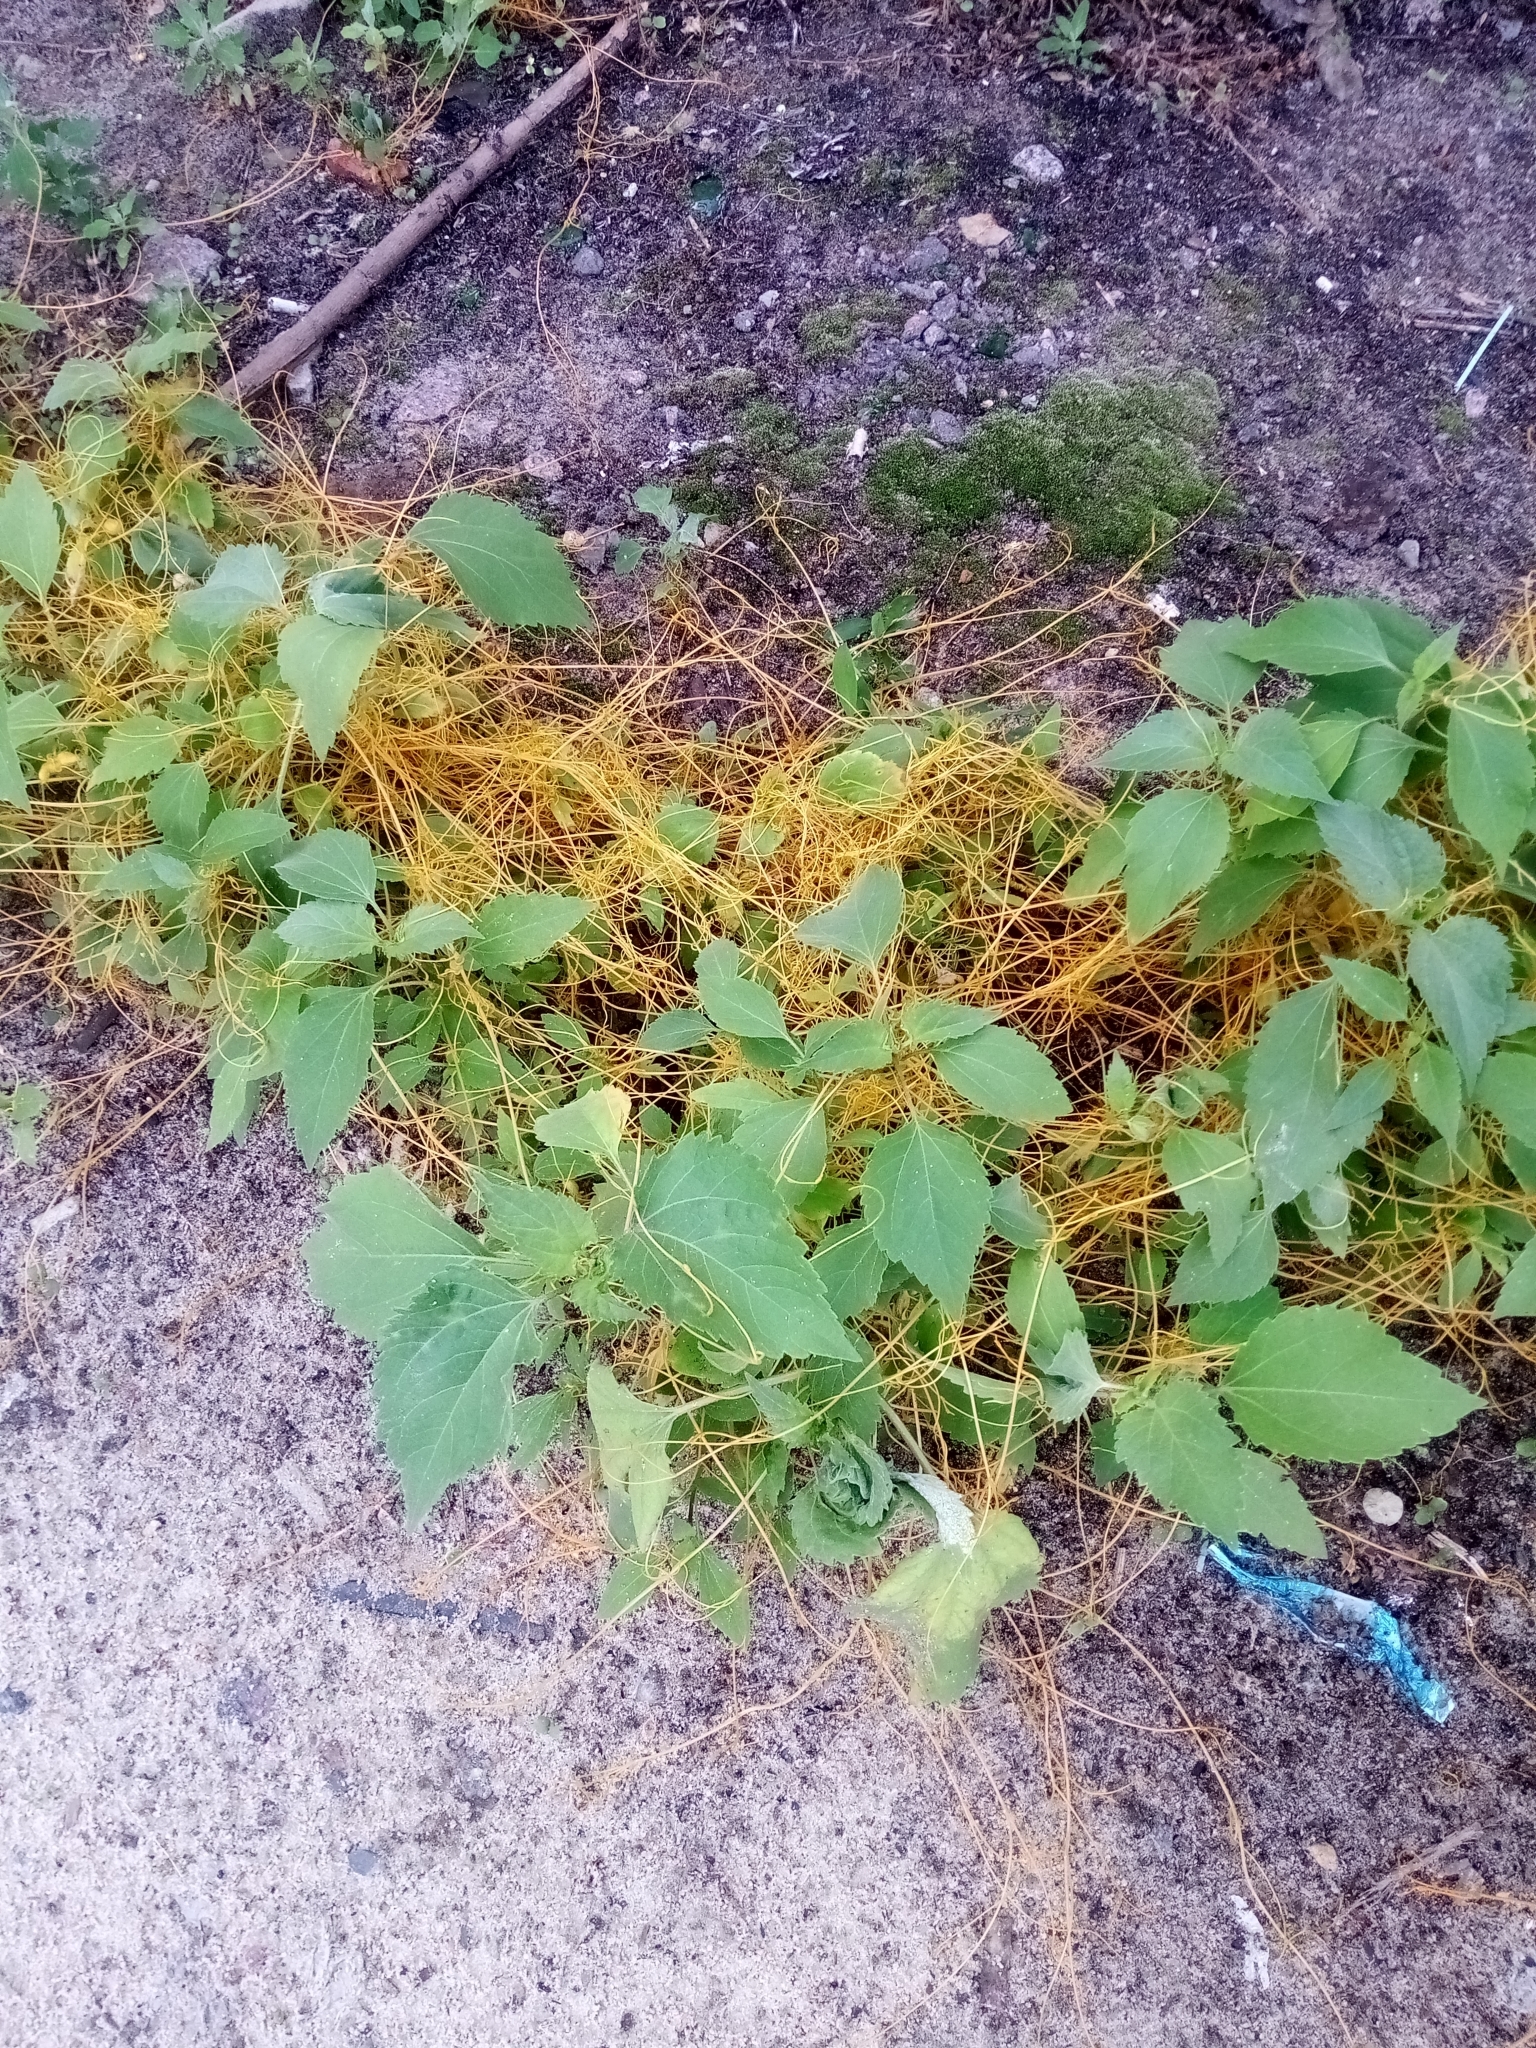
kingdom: Plantae
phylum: Tracheophyta
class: Magnoliopsida
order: Solanales
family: Convolvulaceae
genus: Cuscuta
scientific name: Cuscuta campestris
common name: Yellow dodder
